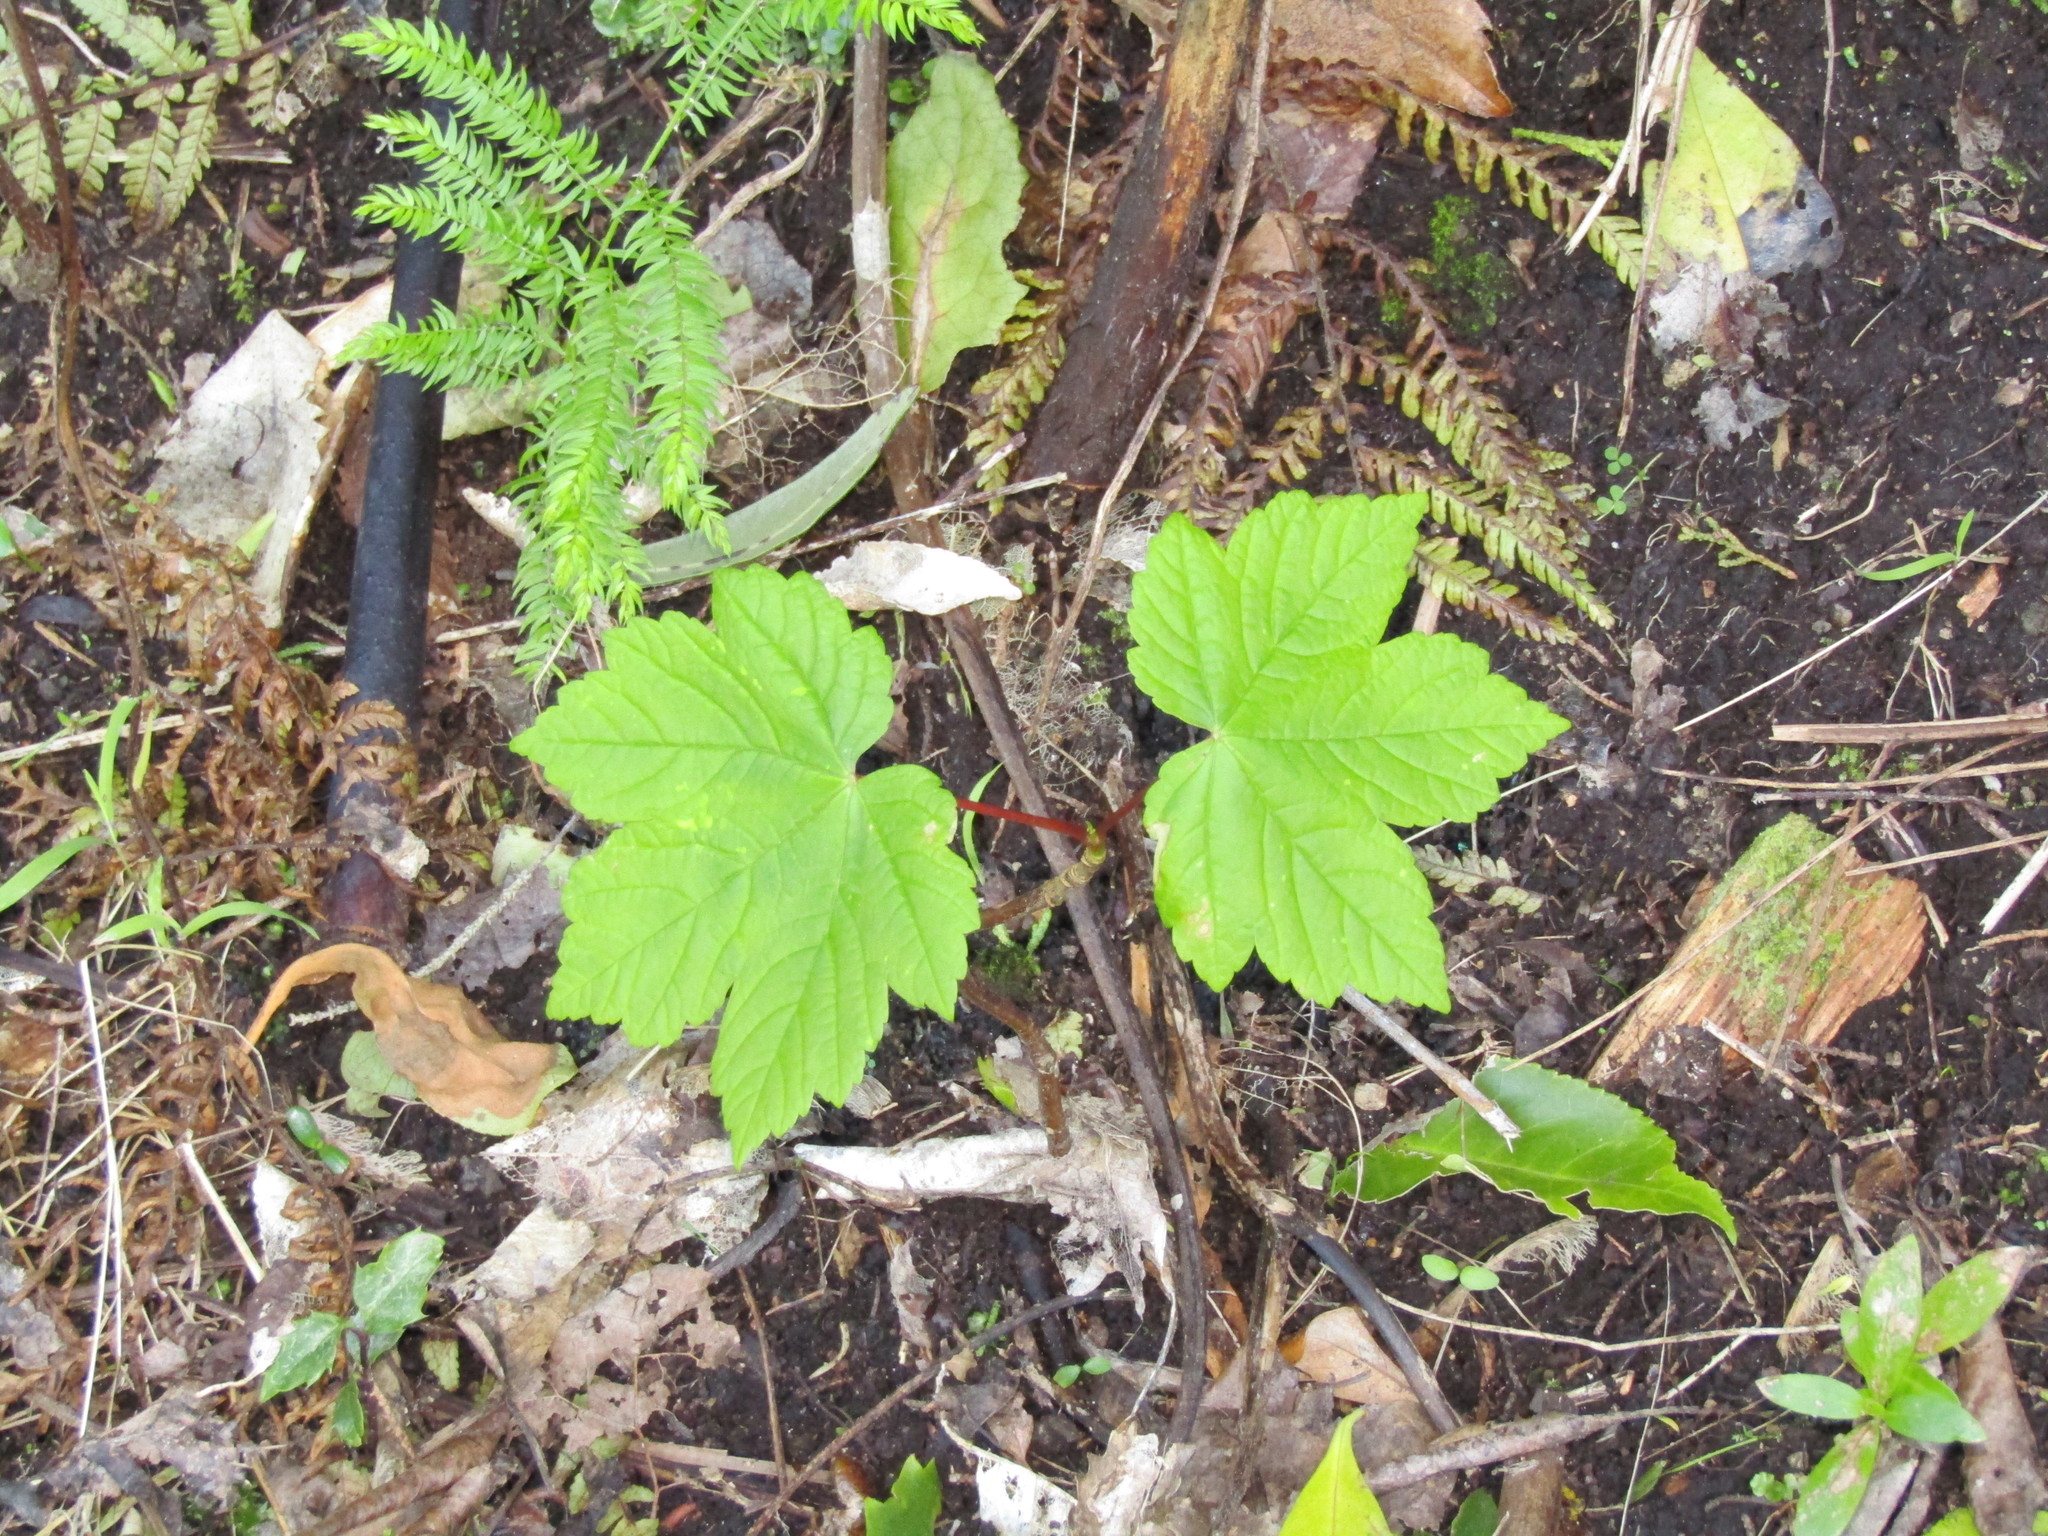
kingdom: Plantae
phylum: Tracheophyta
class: Magnoliopsida
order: Sapindales
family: Sapindaceae
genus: Acer
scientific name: Acer pseudoplatanus
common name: Sycamore
